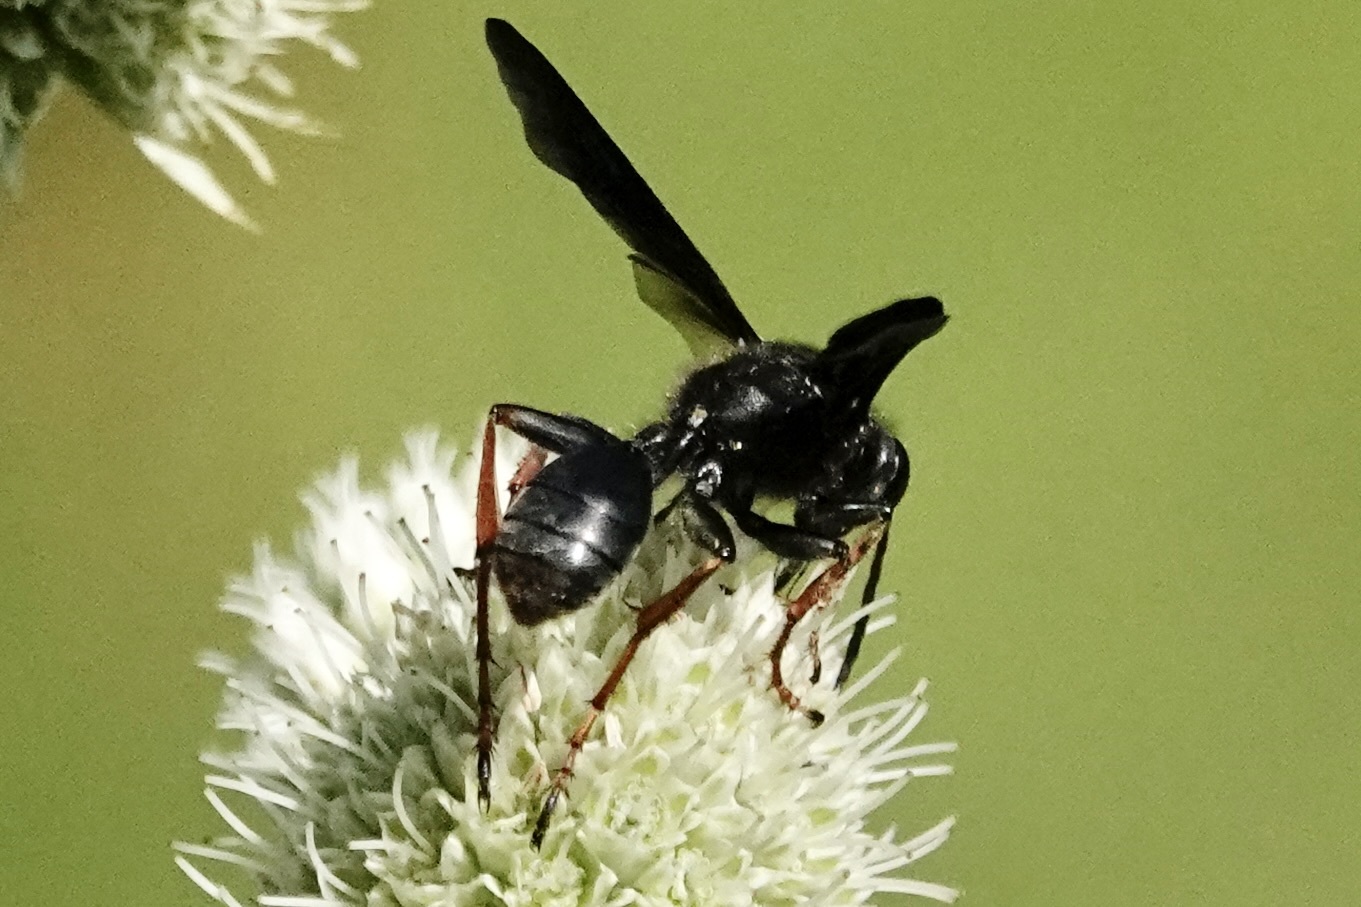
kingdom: Animalia
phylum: Arthropoda
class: Insecta
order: Hymenoptera
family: Sphecidae
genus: Isodontia
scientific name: Isodontia auripes
